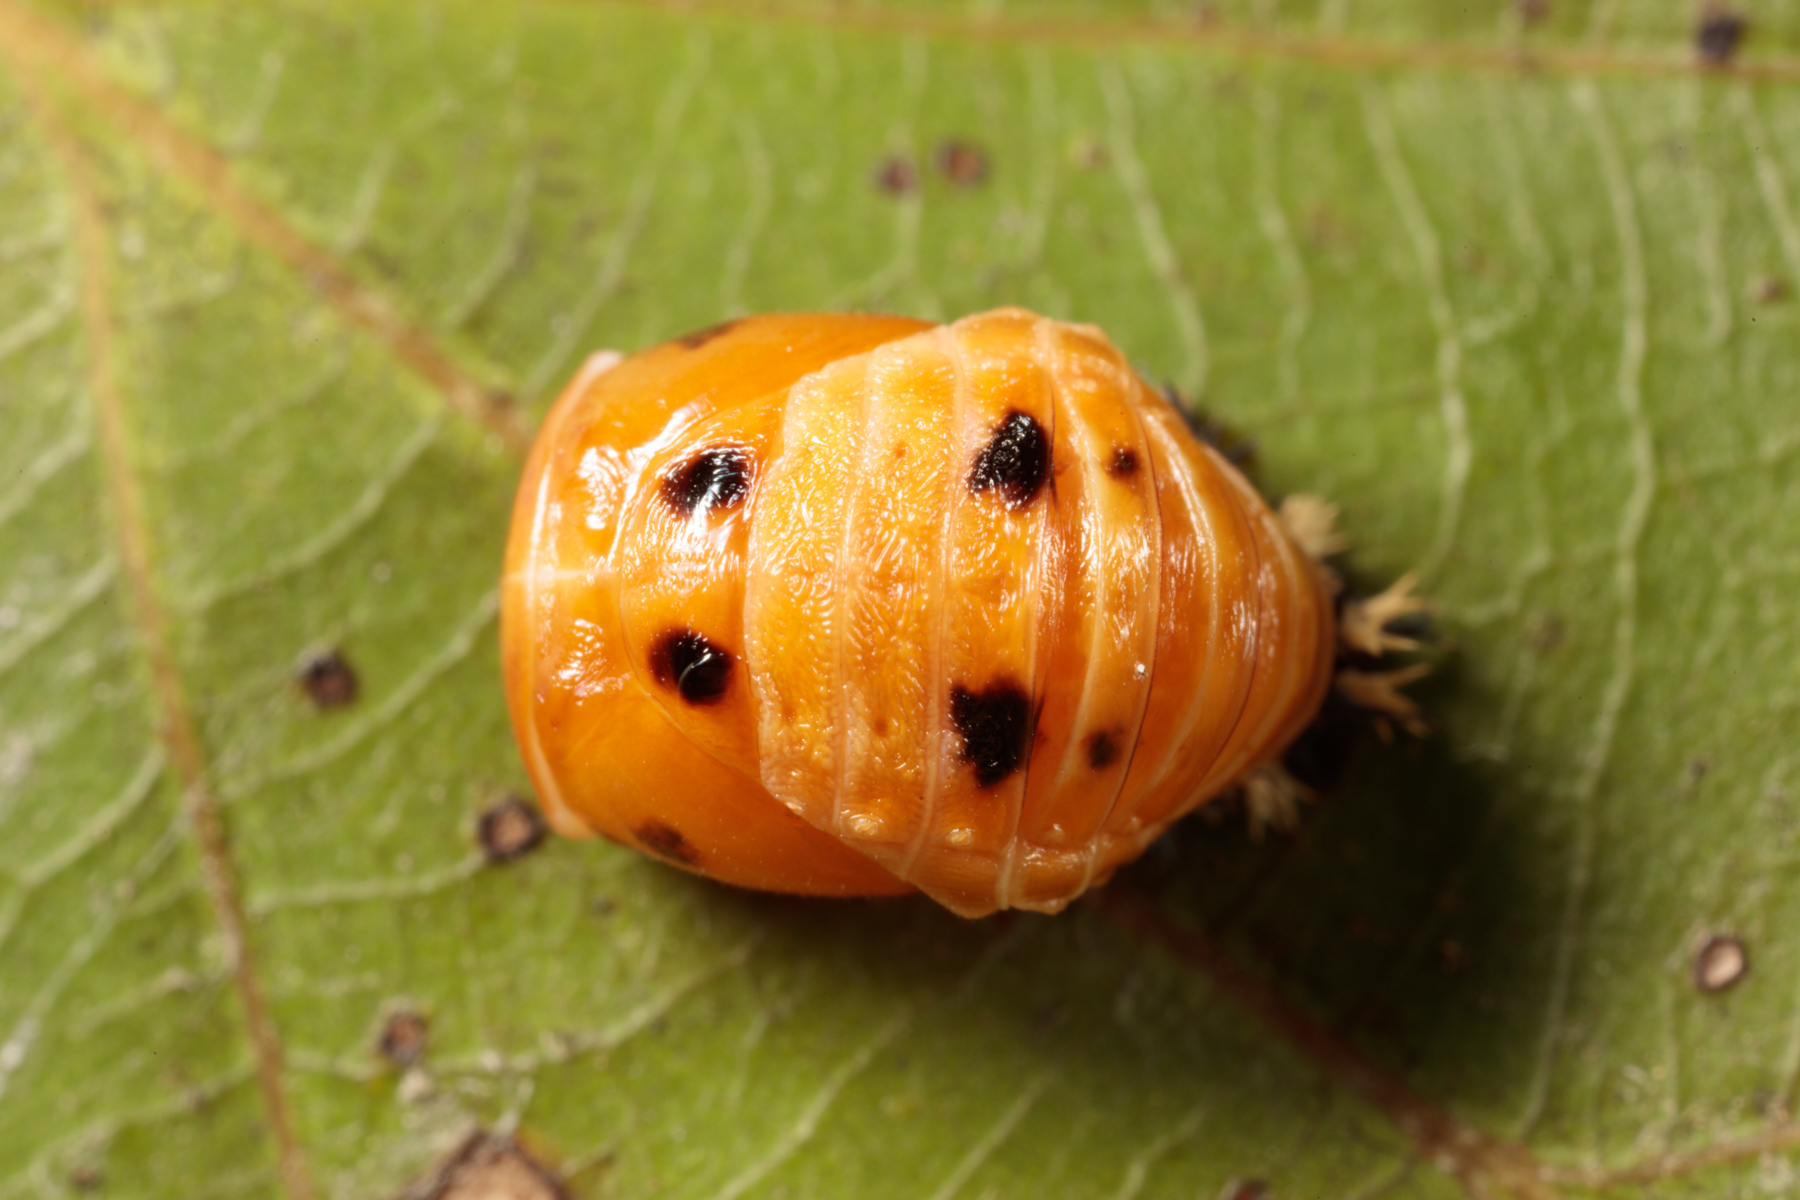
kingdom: Animalia
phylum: Arthropoda
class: Insecta
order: Coleoptera
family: Coccinellidae
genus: Harmonia
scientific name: Harmonia axyridis
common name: Harlequin ladybird
